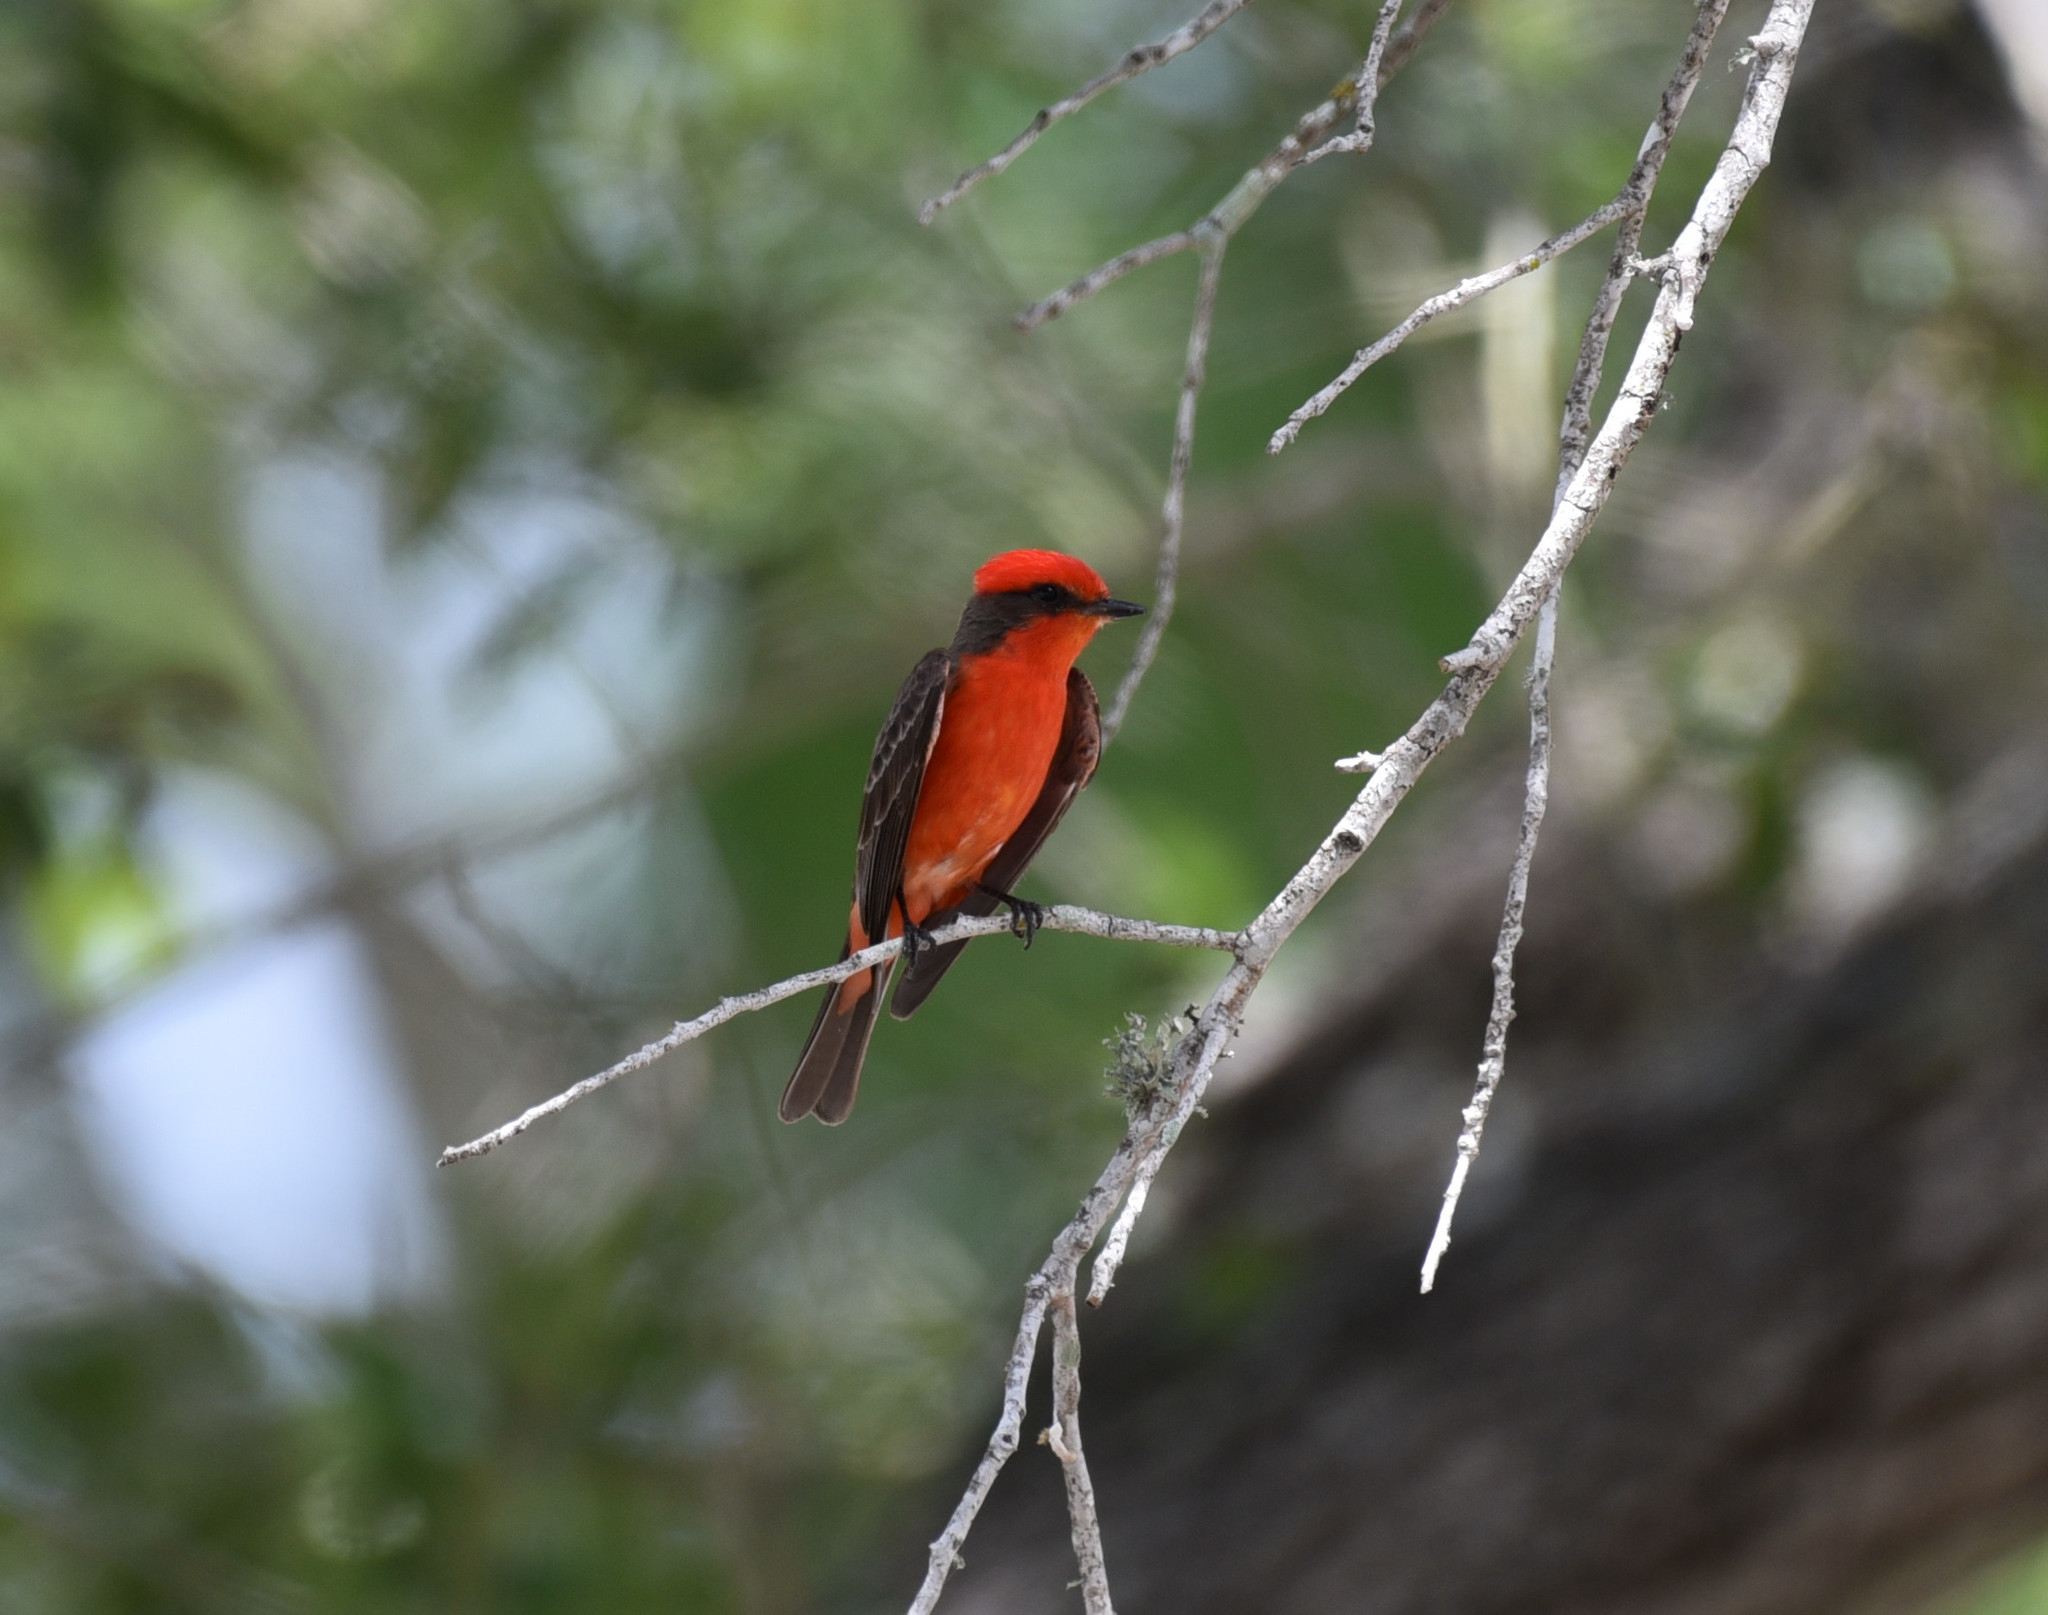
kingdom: Animalia
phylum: Chordata
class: Aves
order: Passeriformes
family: Tyrannidae
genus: Pyrocephalus
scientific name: Pyrocephalus rubinus
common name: Vermilion flycatcher
